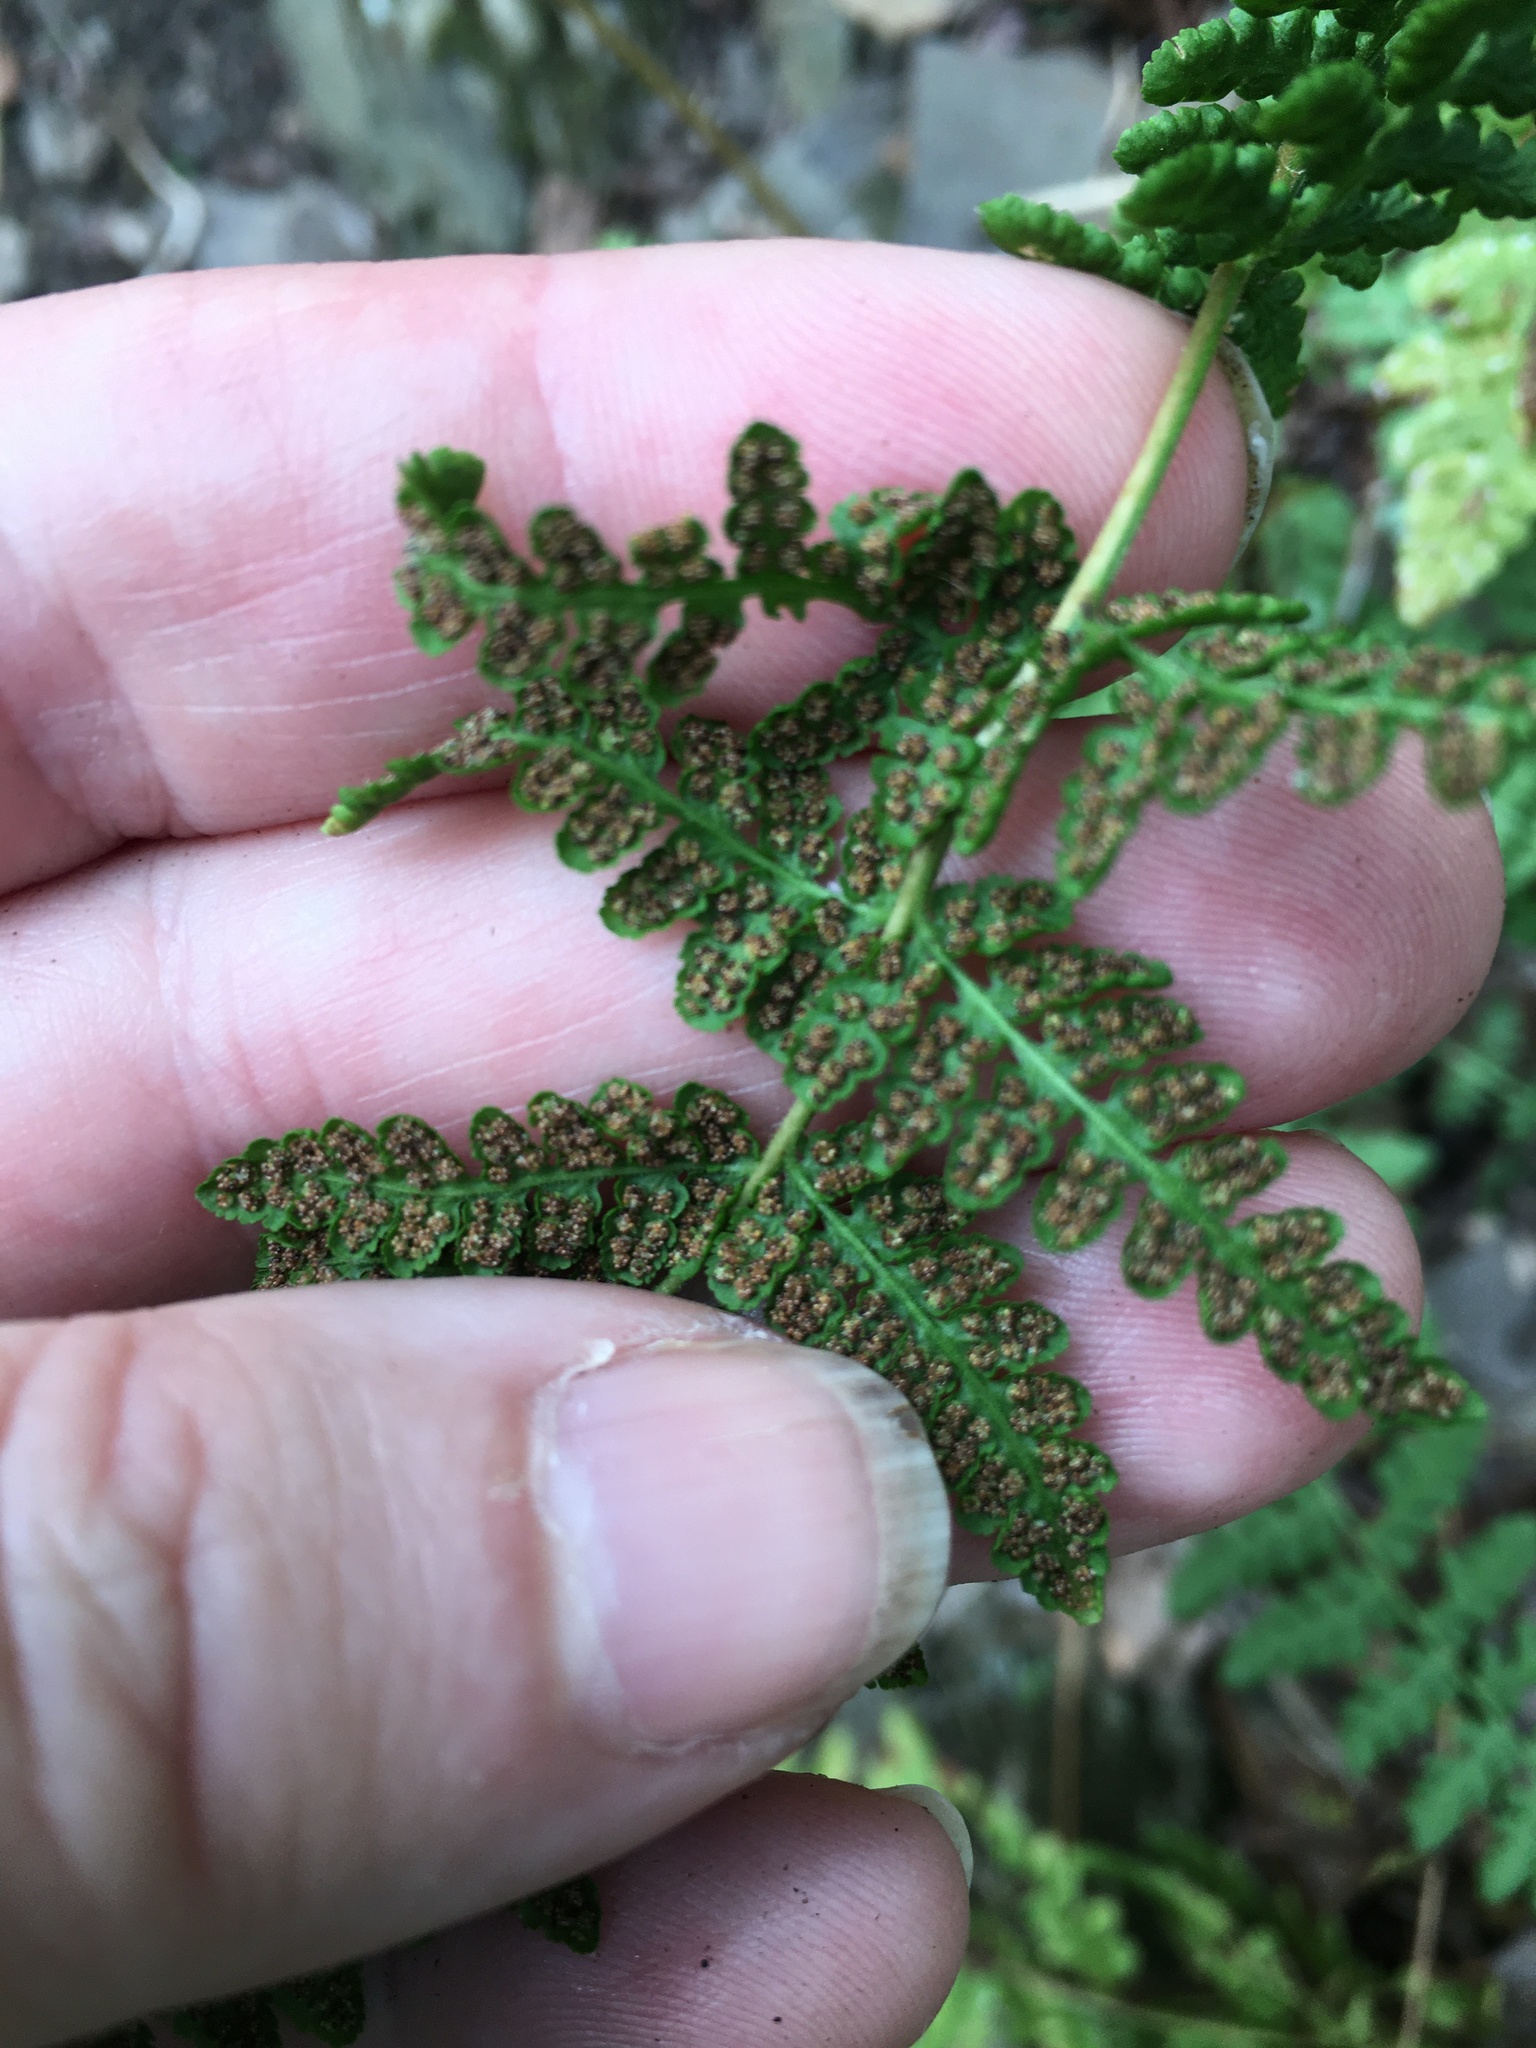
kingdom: Plantae
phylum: Tracheophyta
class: Polypodiopsida
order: Polypodiales
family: Woodsiaceae
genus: Physematium
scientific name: Physematium obtusum
